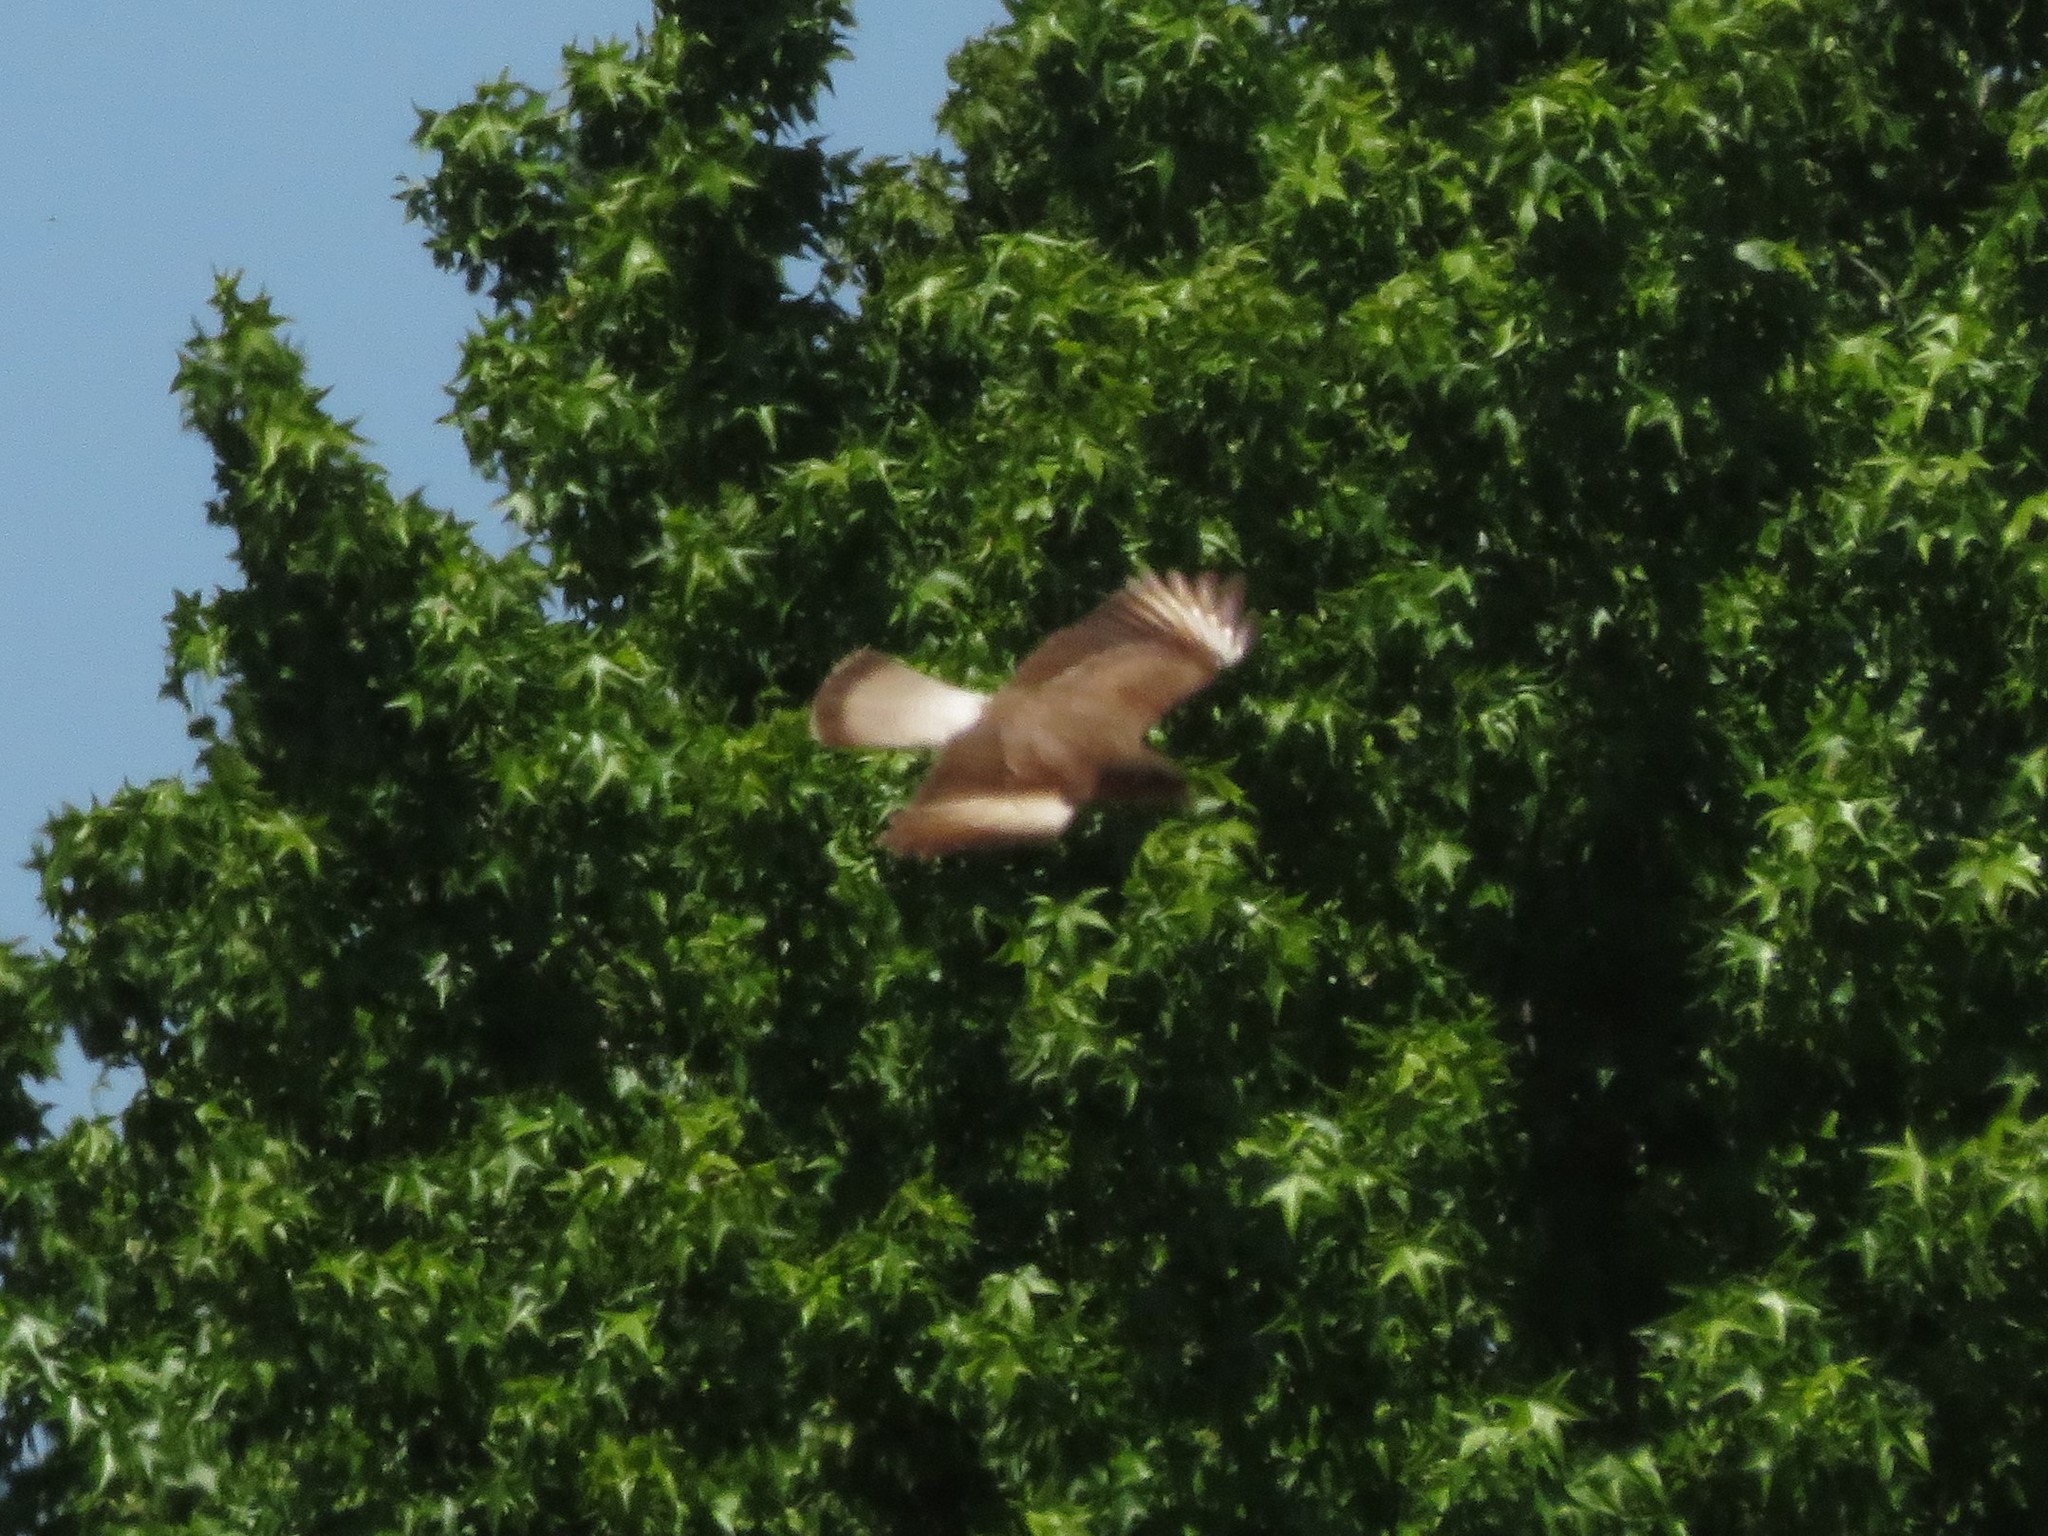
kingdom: Animalia
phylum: Chordata
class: Aves
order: Falconiformes
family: Falconidae
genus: Daptrius
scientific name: Daptrius
